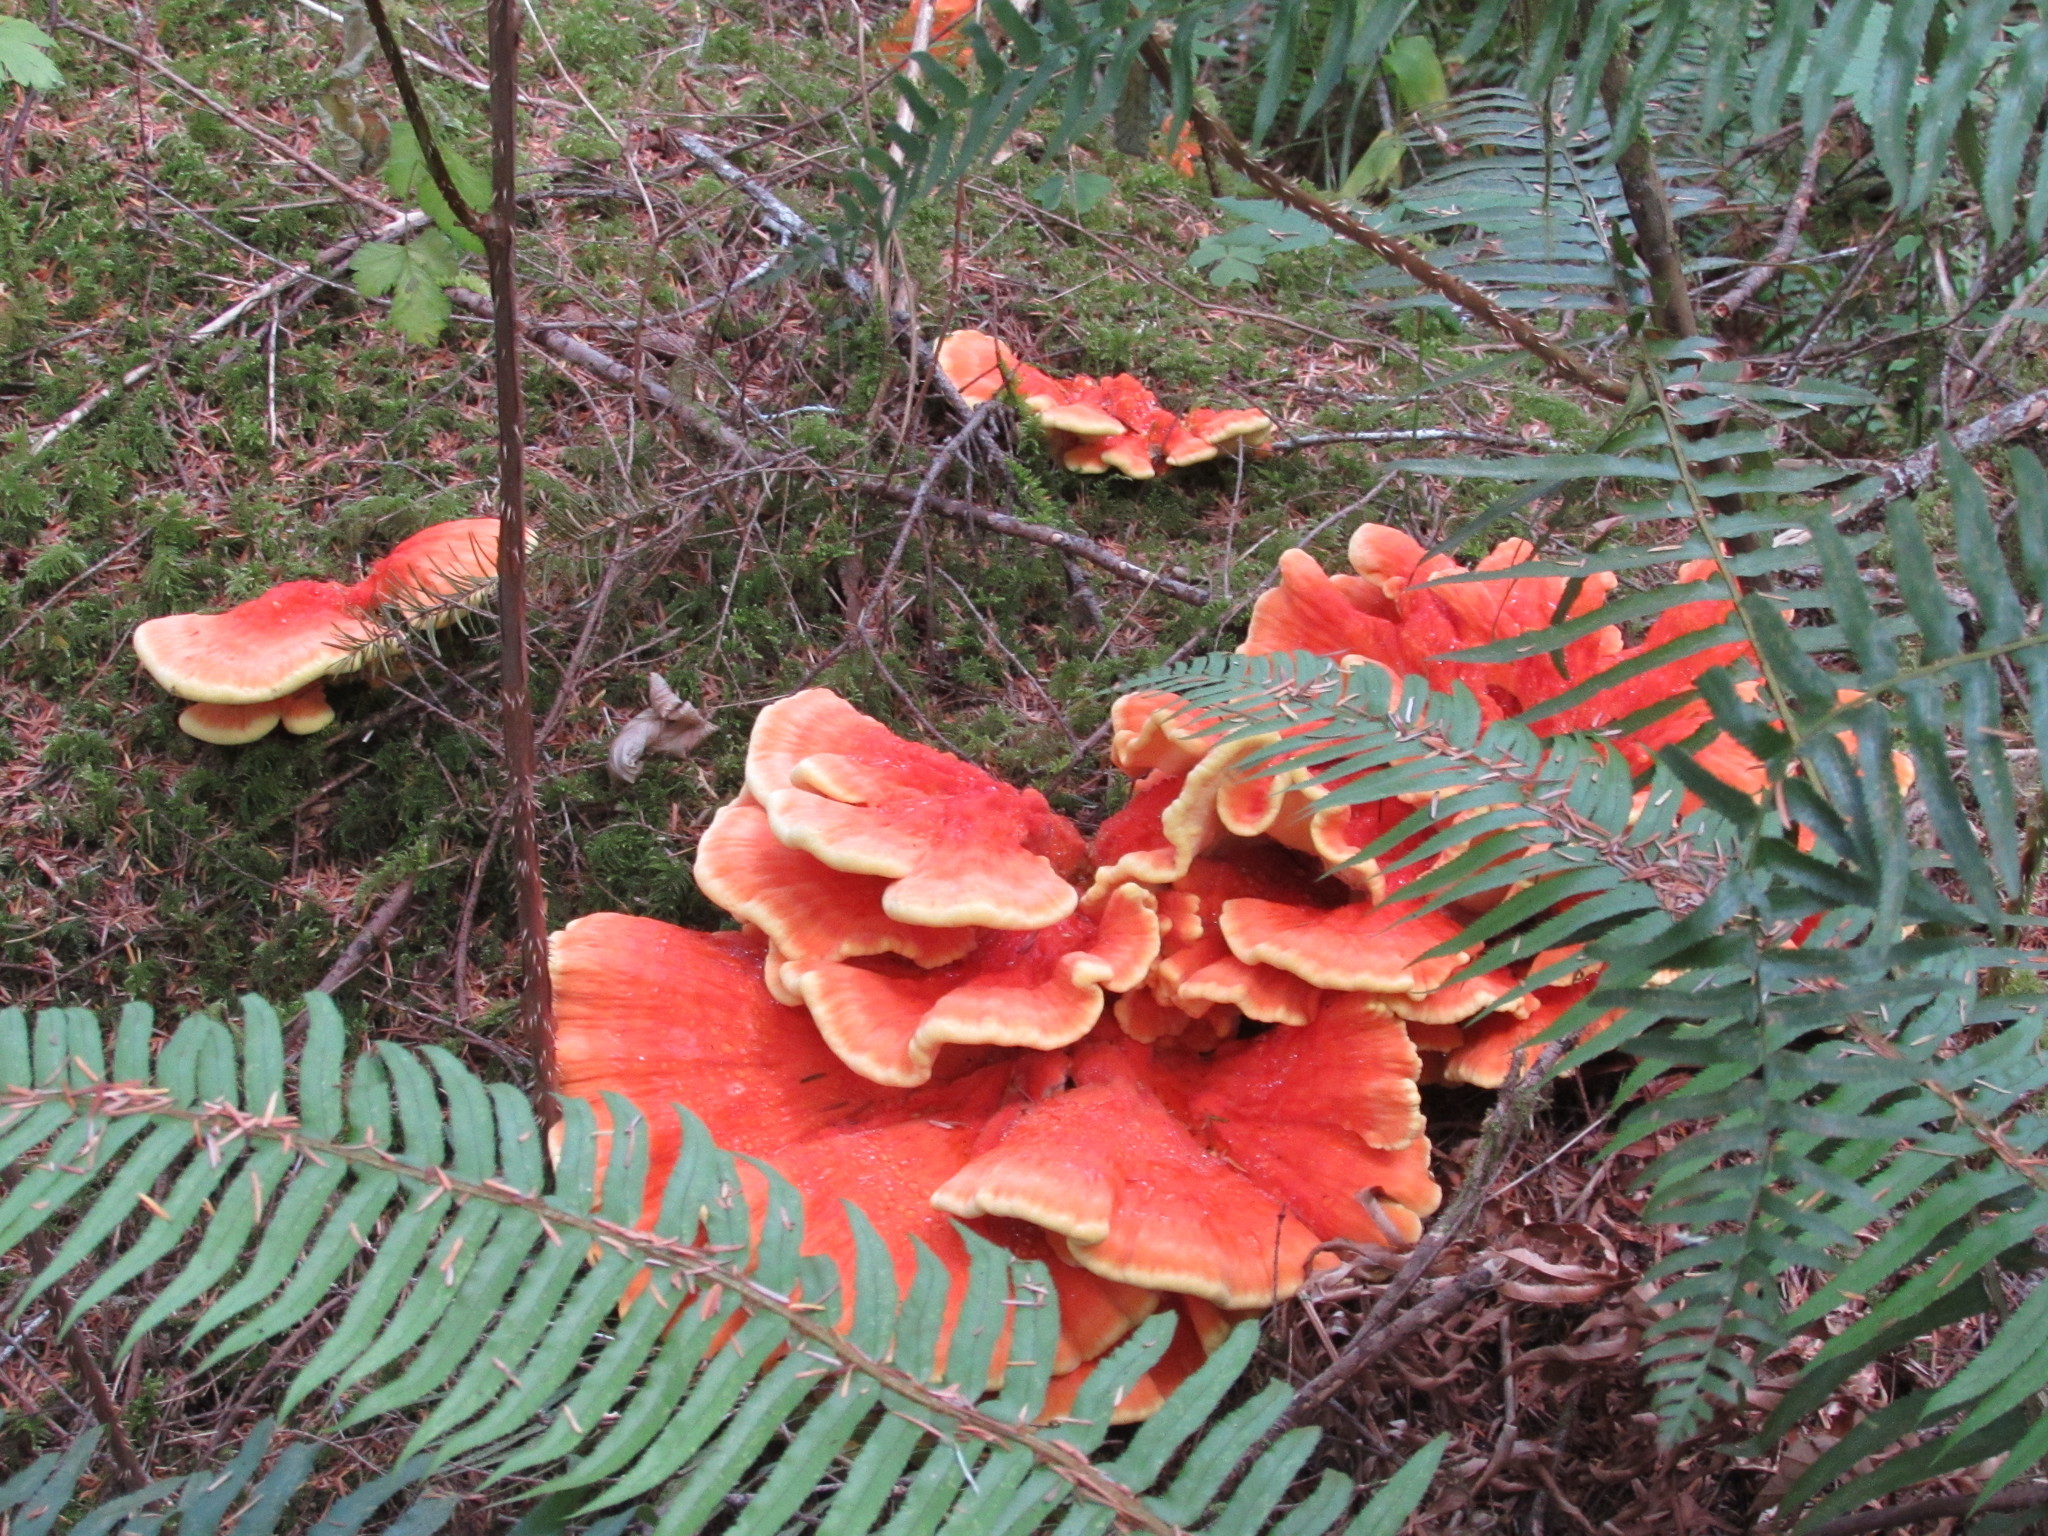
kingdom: Fungi
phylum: Basidiomycota
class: Agaricomycetes
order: Polyporales
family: Laetiporaceae
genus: Laetiporus
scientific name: Laetiporus conifericola
